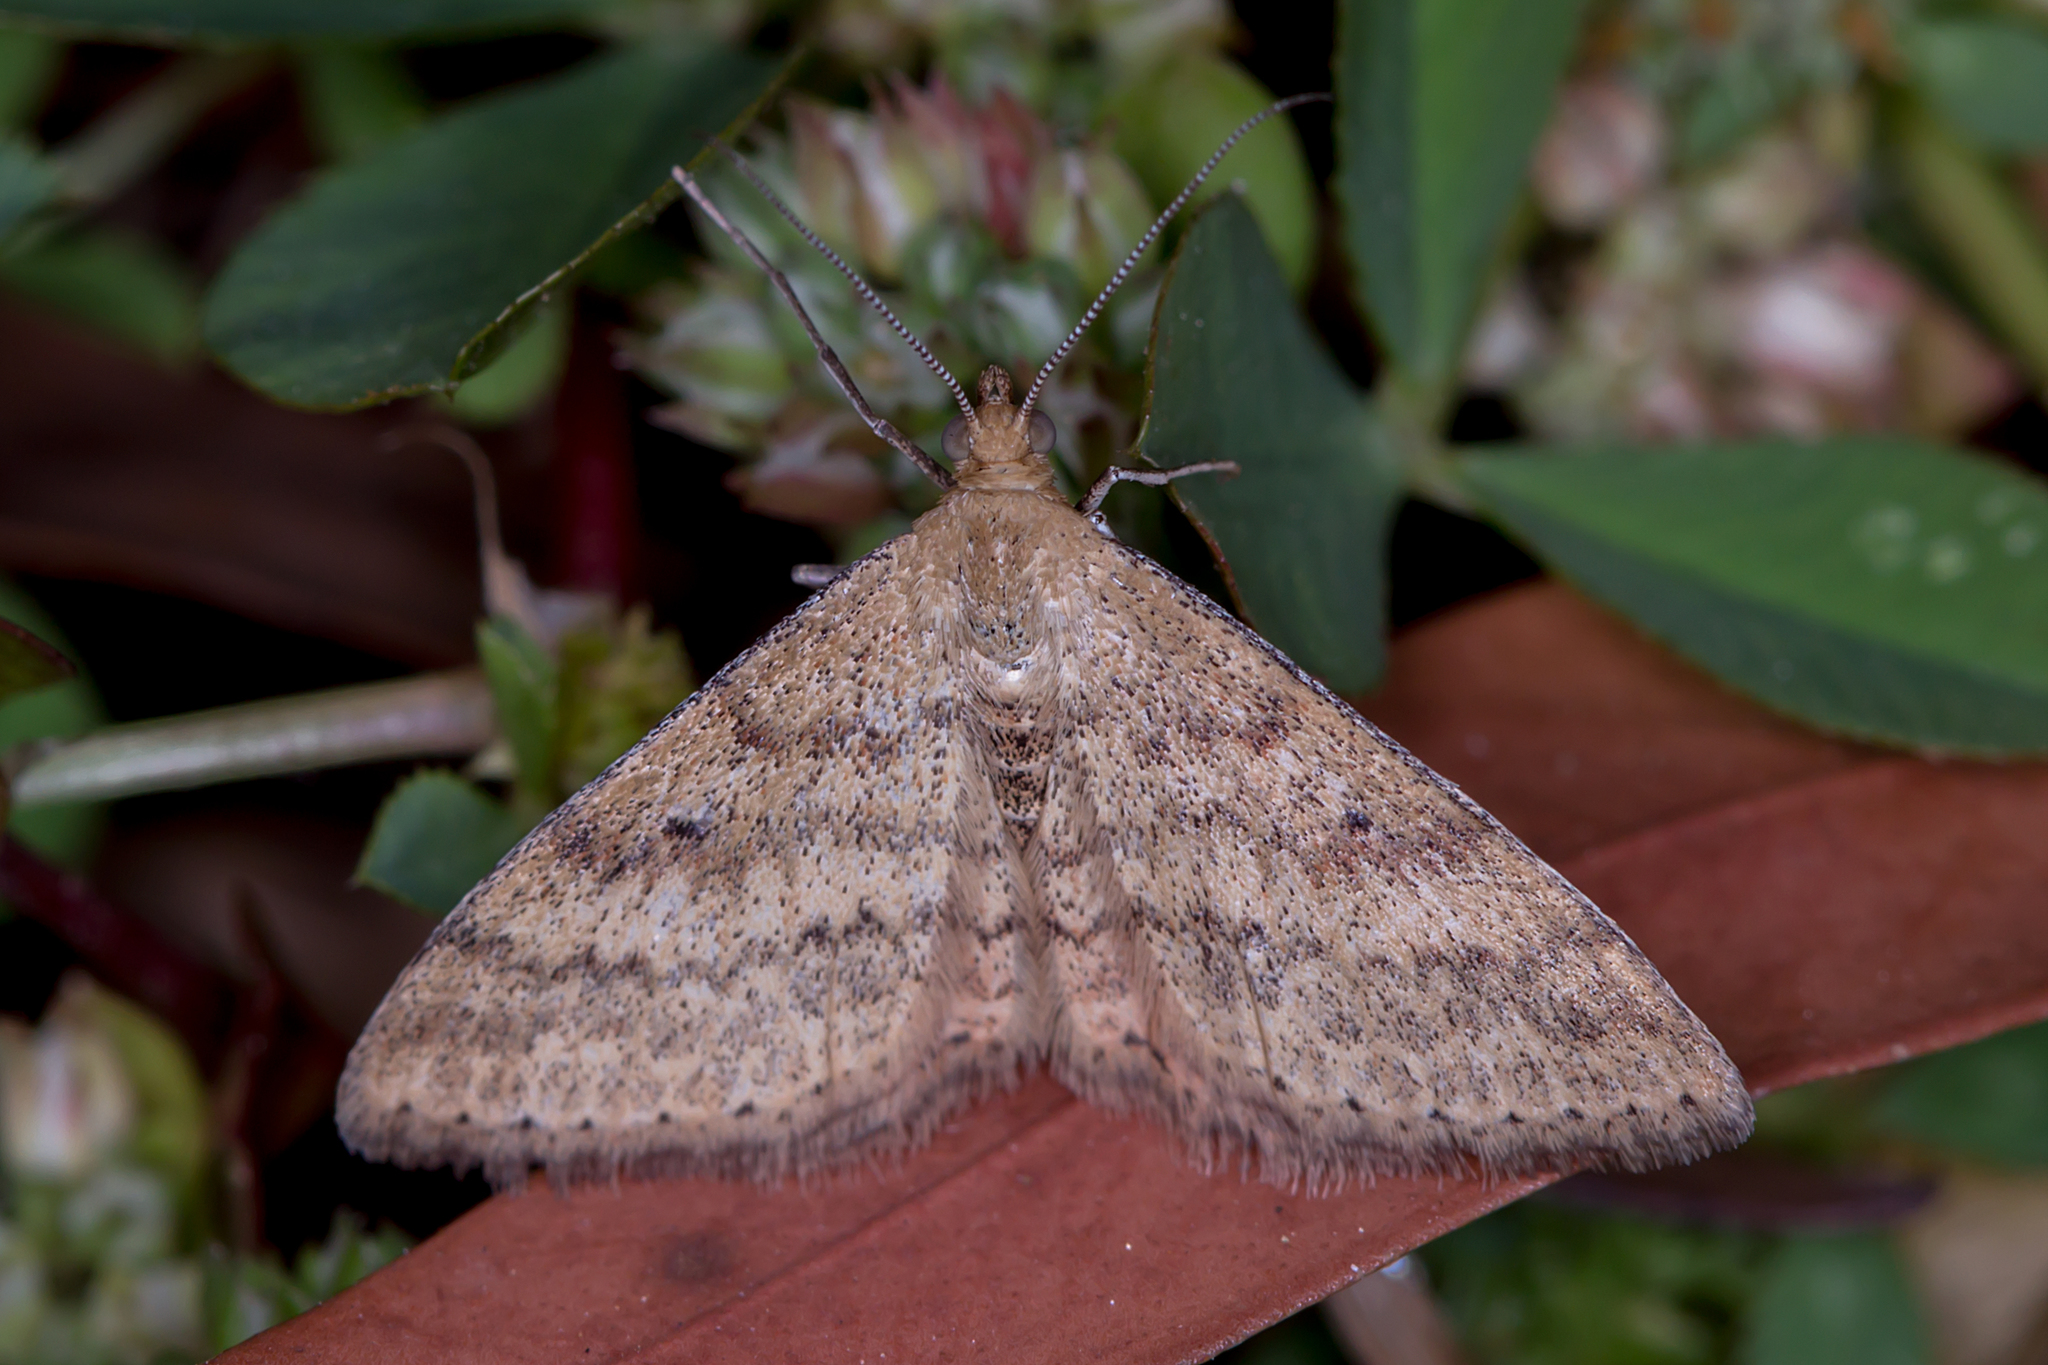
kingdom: Animalia
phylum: Arthropoda
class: Insecta
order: Lepidoptera
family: Geometridae
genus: Scopula
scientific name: Scopula rubraria
